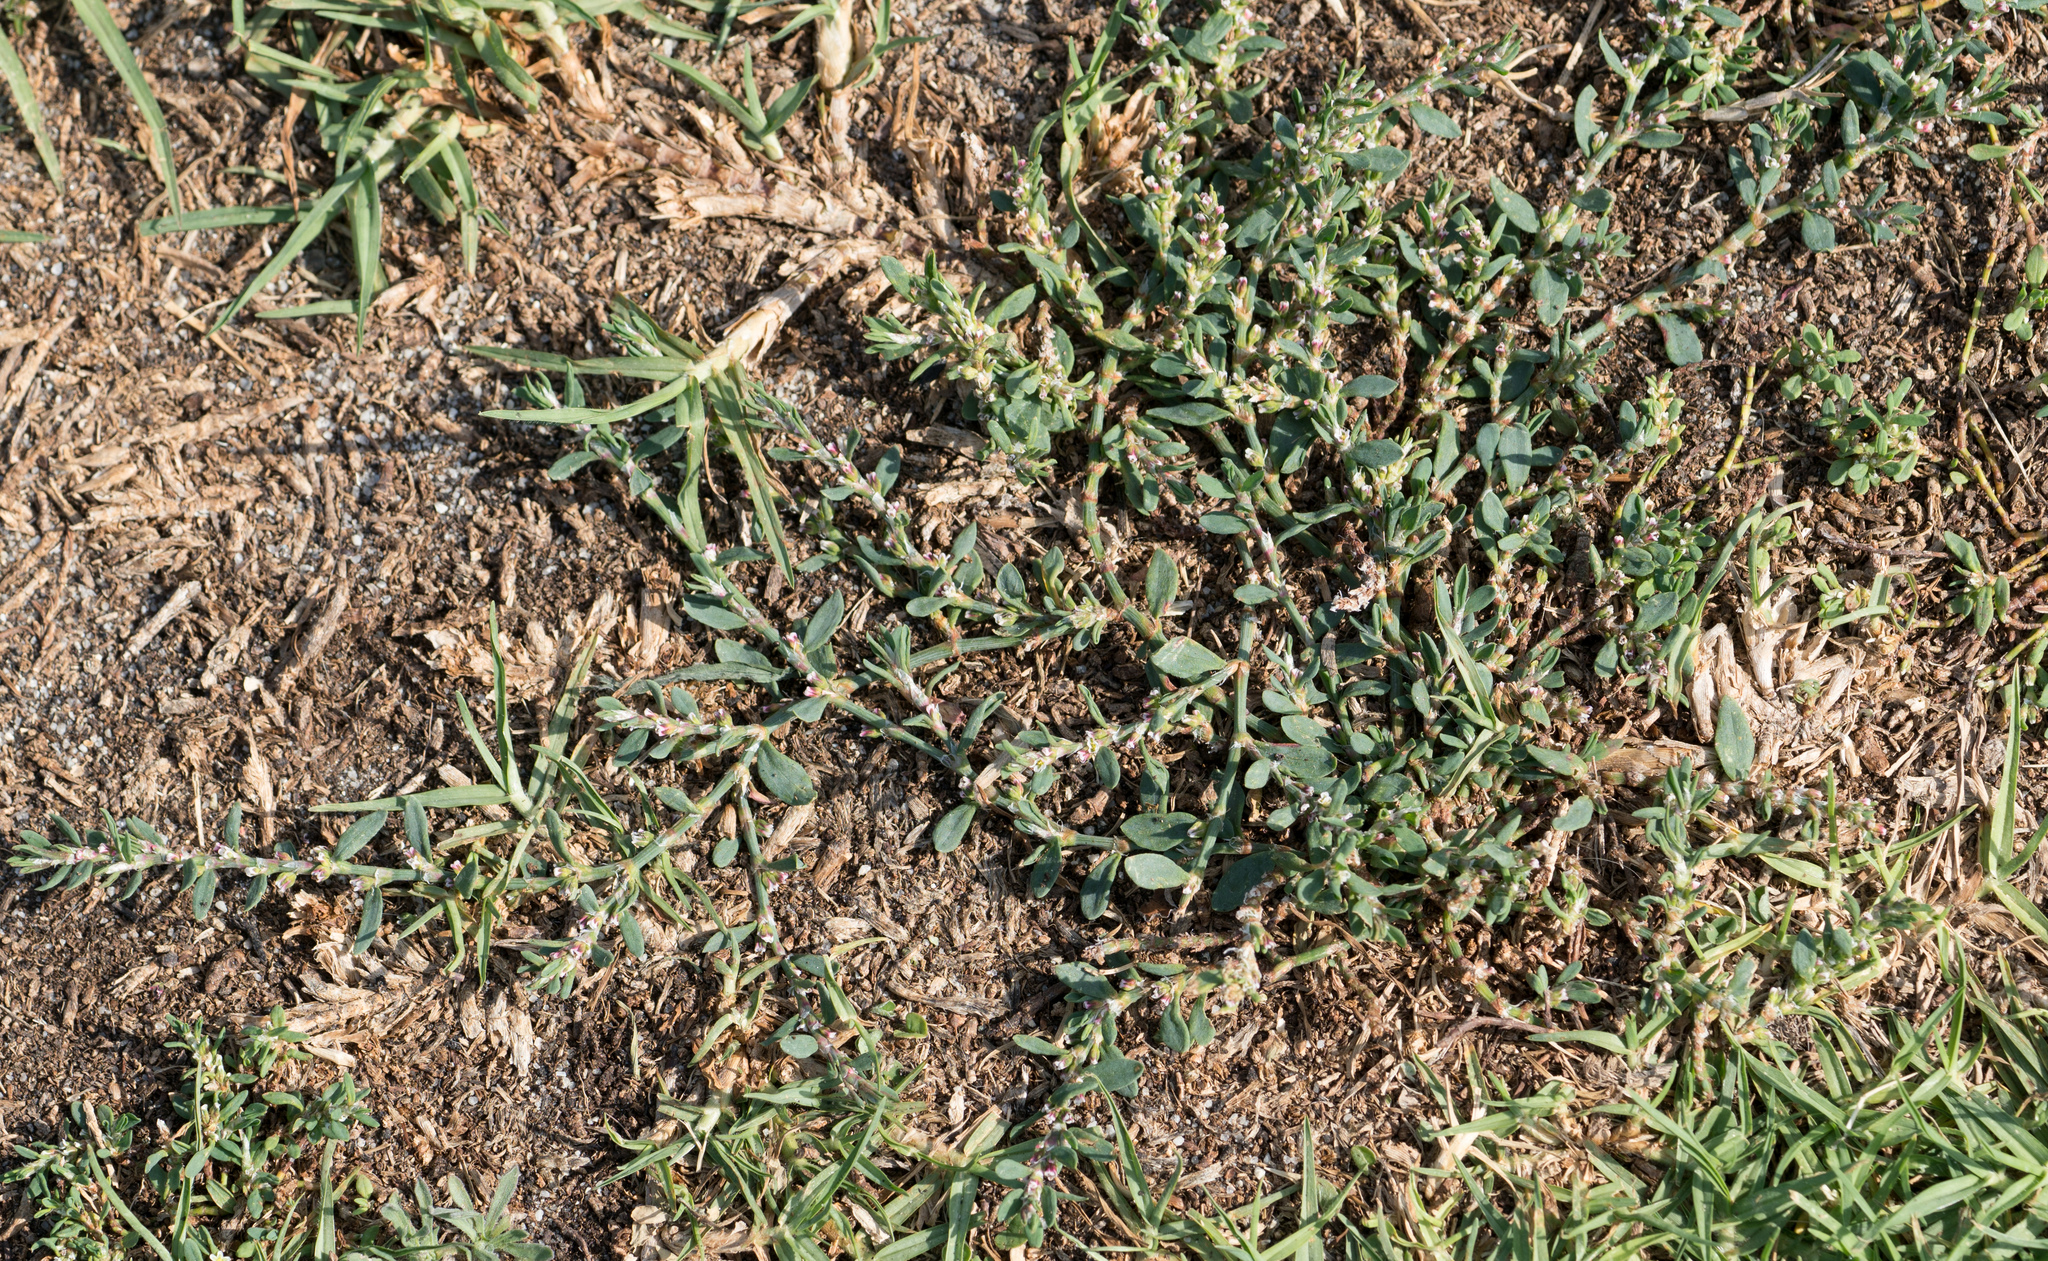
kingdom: Plantae
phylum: Tracheophyta
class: Magnoliopsida
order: Caryophyllales
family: Polygonaceae
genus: Polygonum
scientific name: Polygonum aviculare
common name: Prostrate knotweed
